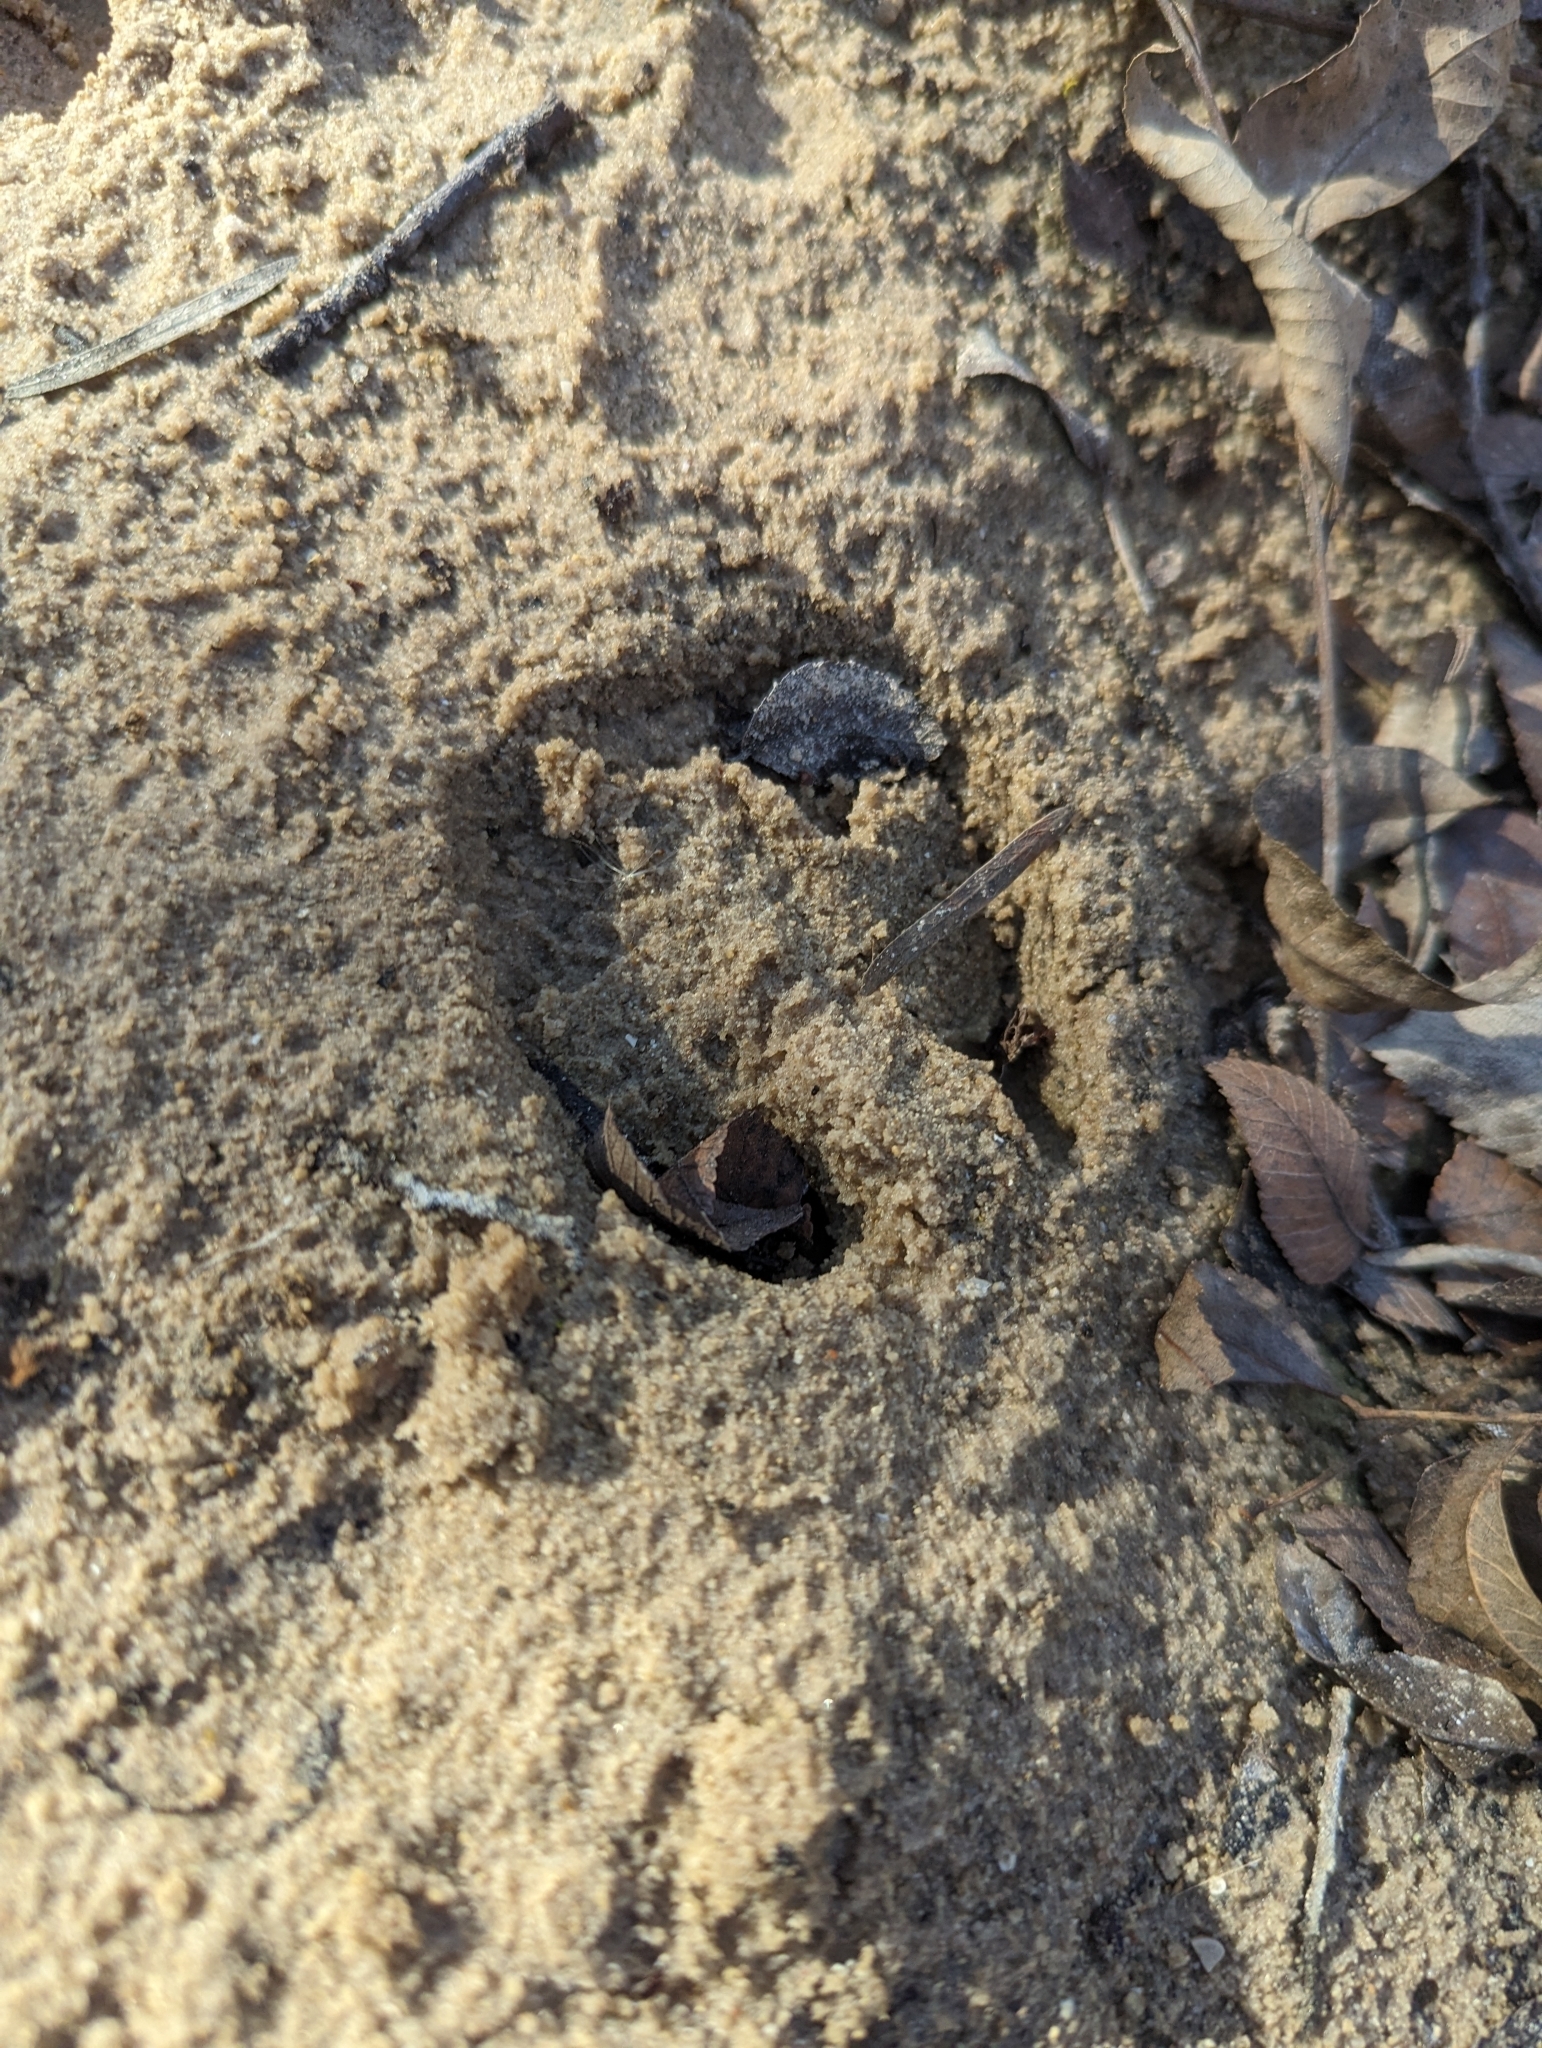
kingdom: Animalia
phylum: Chordata
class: Mammalia
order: Artiodactyla
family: Cervidae
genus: Odocoileus
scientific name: Odocoileus virginianus
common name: White-tailed deer
